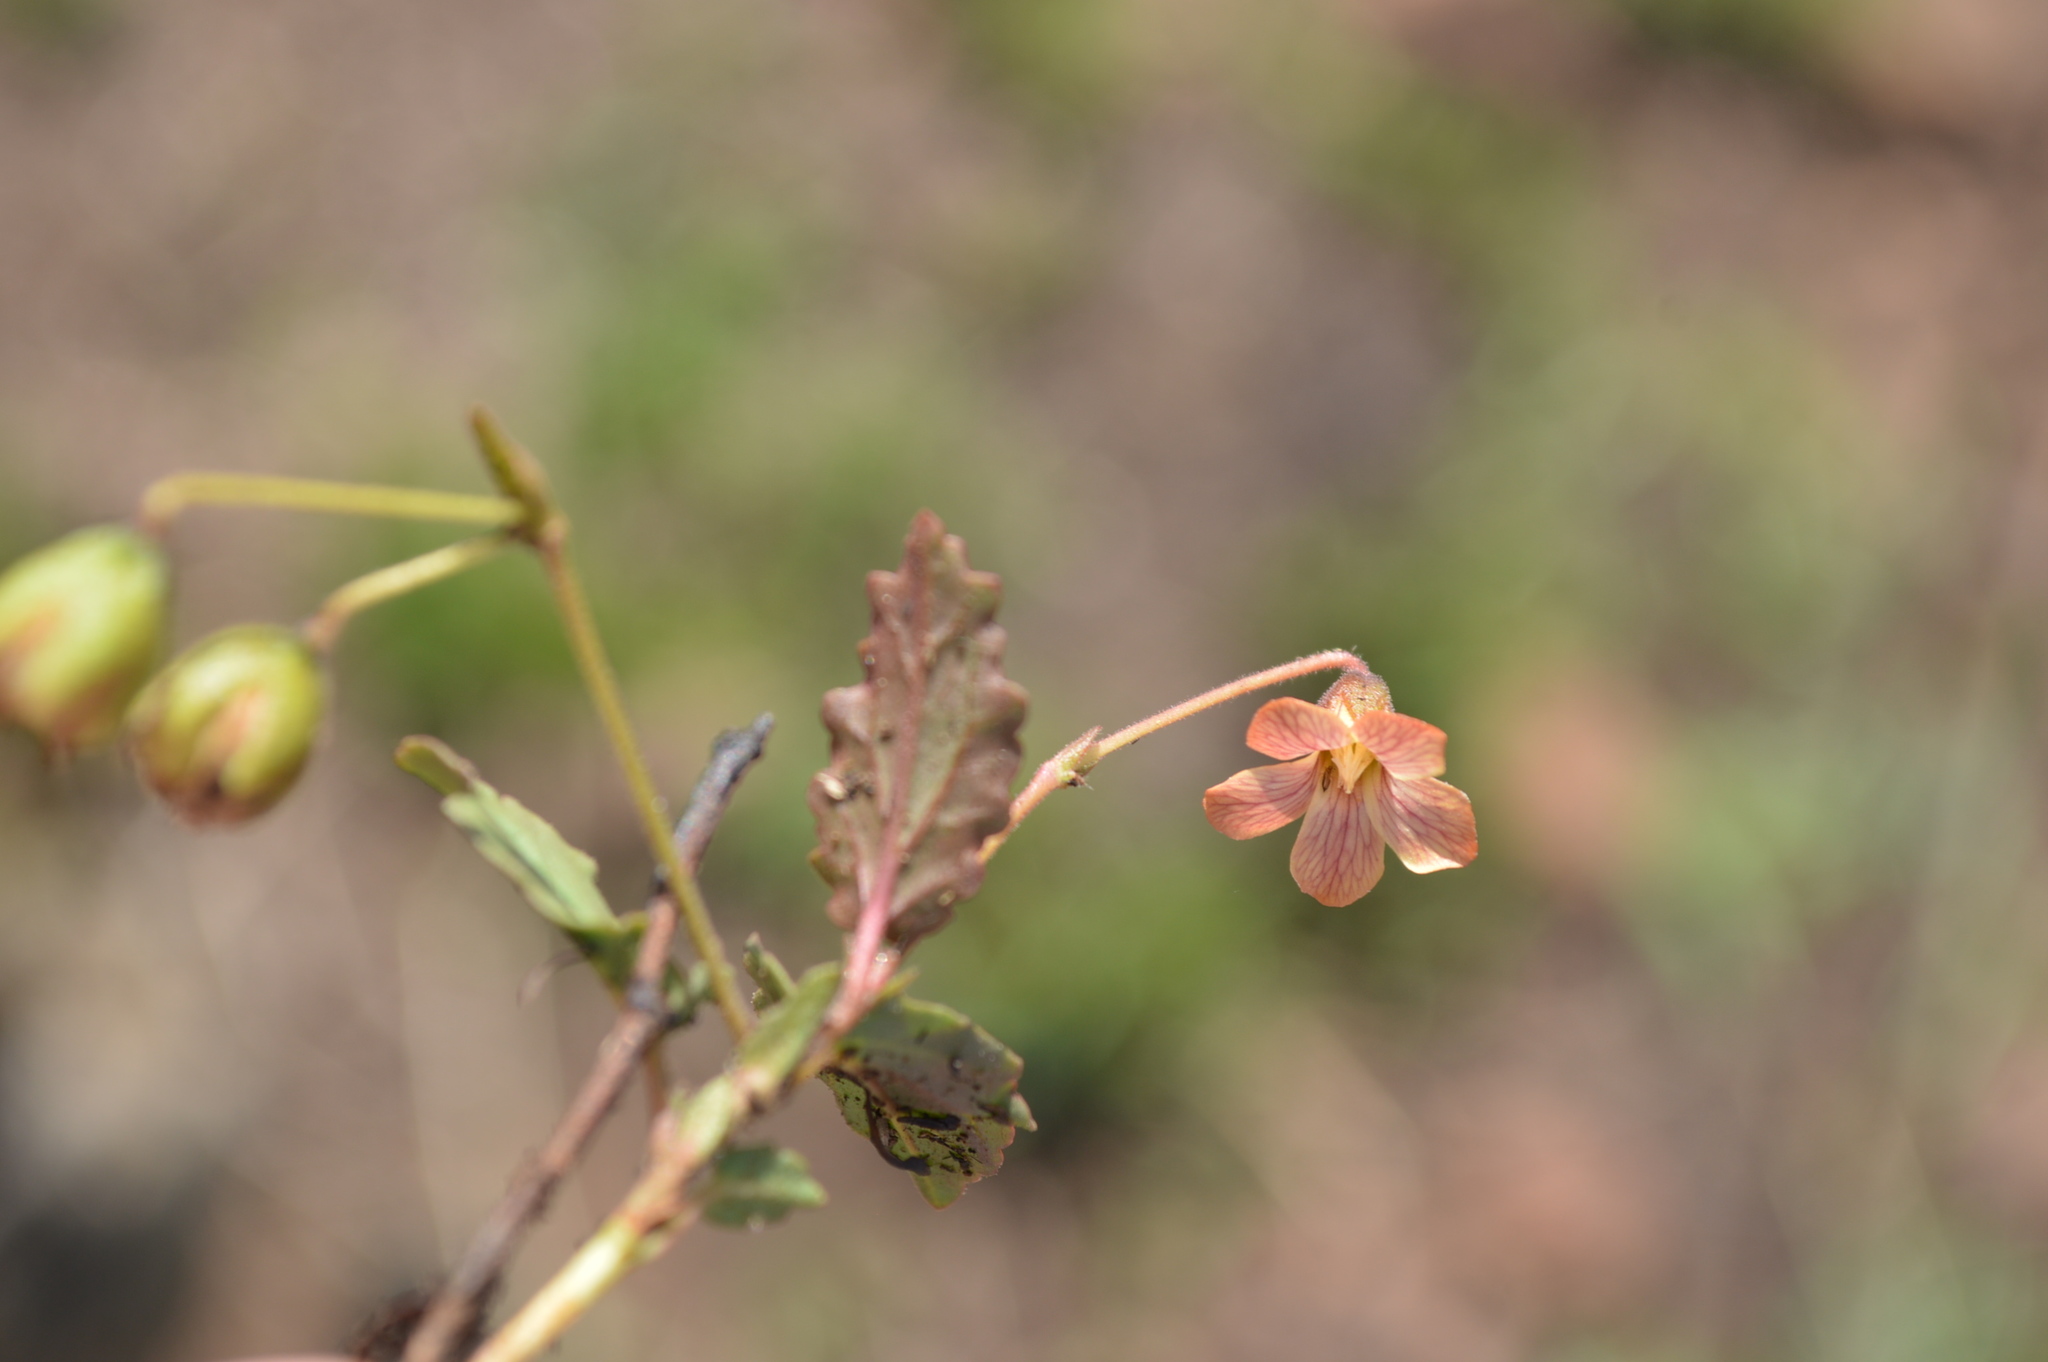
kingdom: Plantae
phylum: Tracheophyta
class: Magnoliopsida
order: Malvales
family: Malvaceae
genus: Hermannia
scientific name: Hermannia depressa
